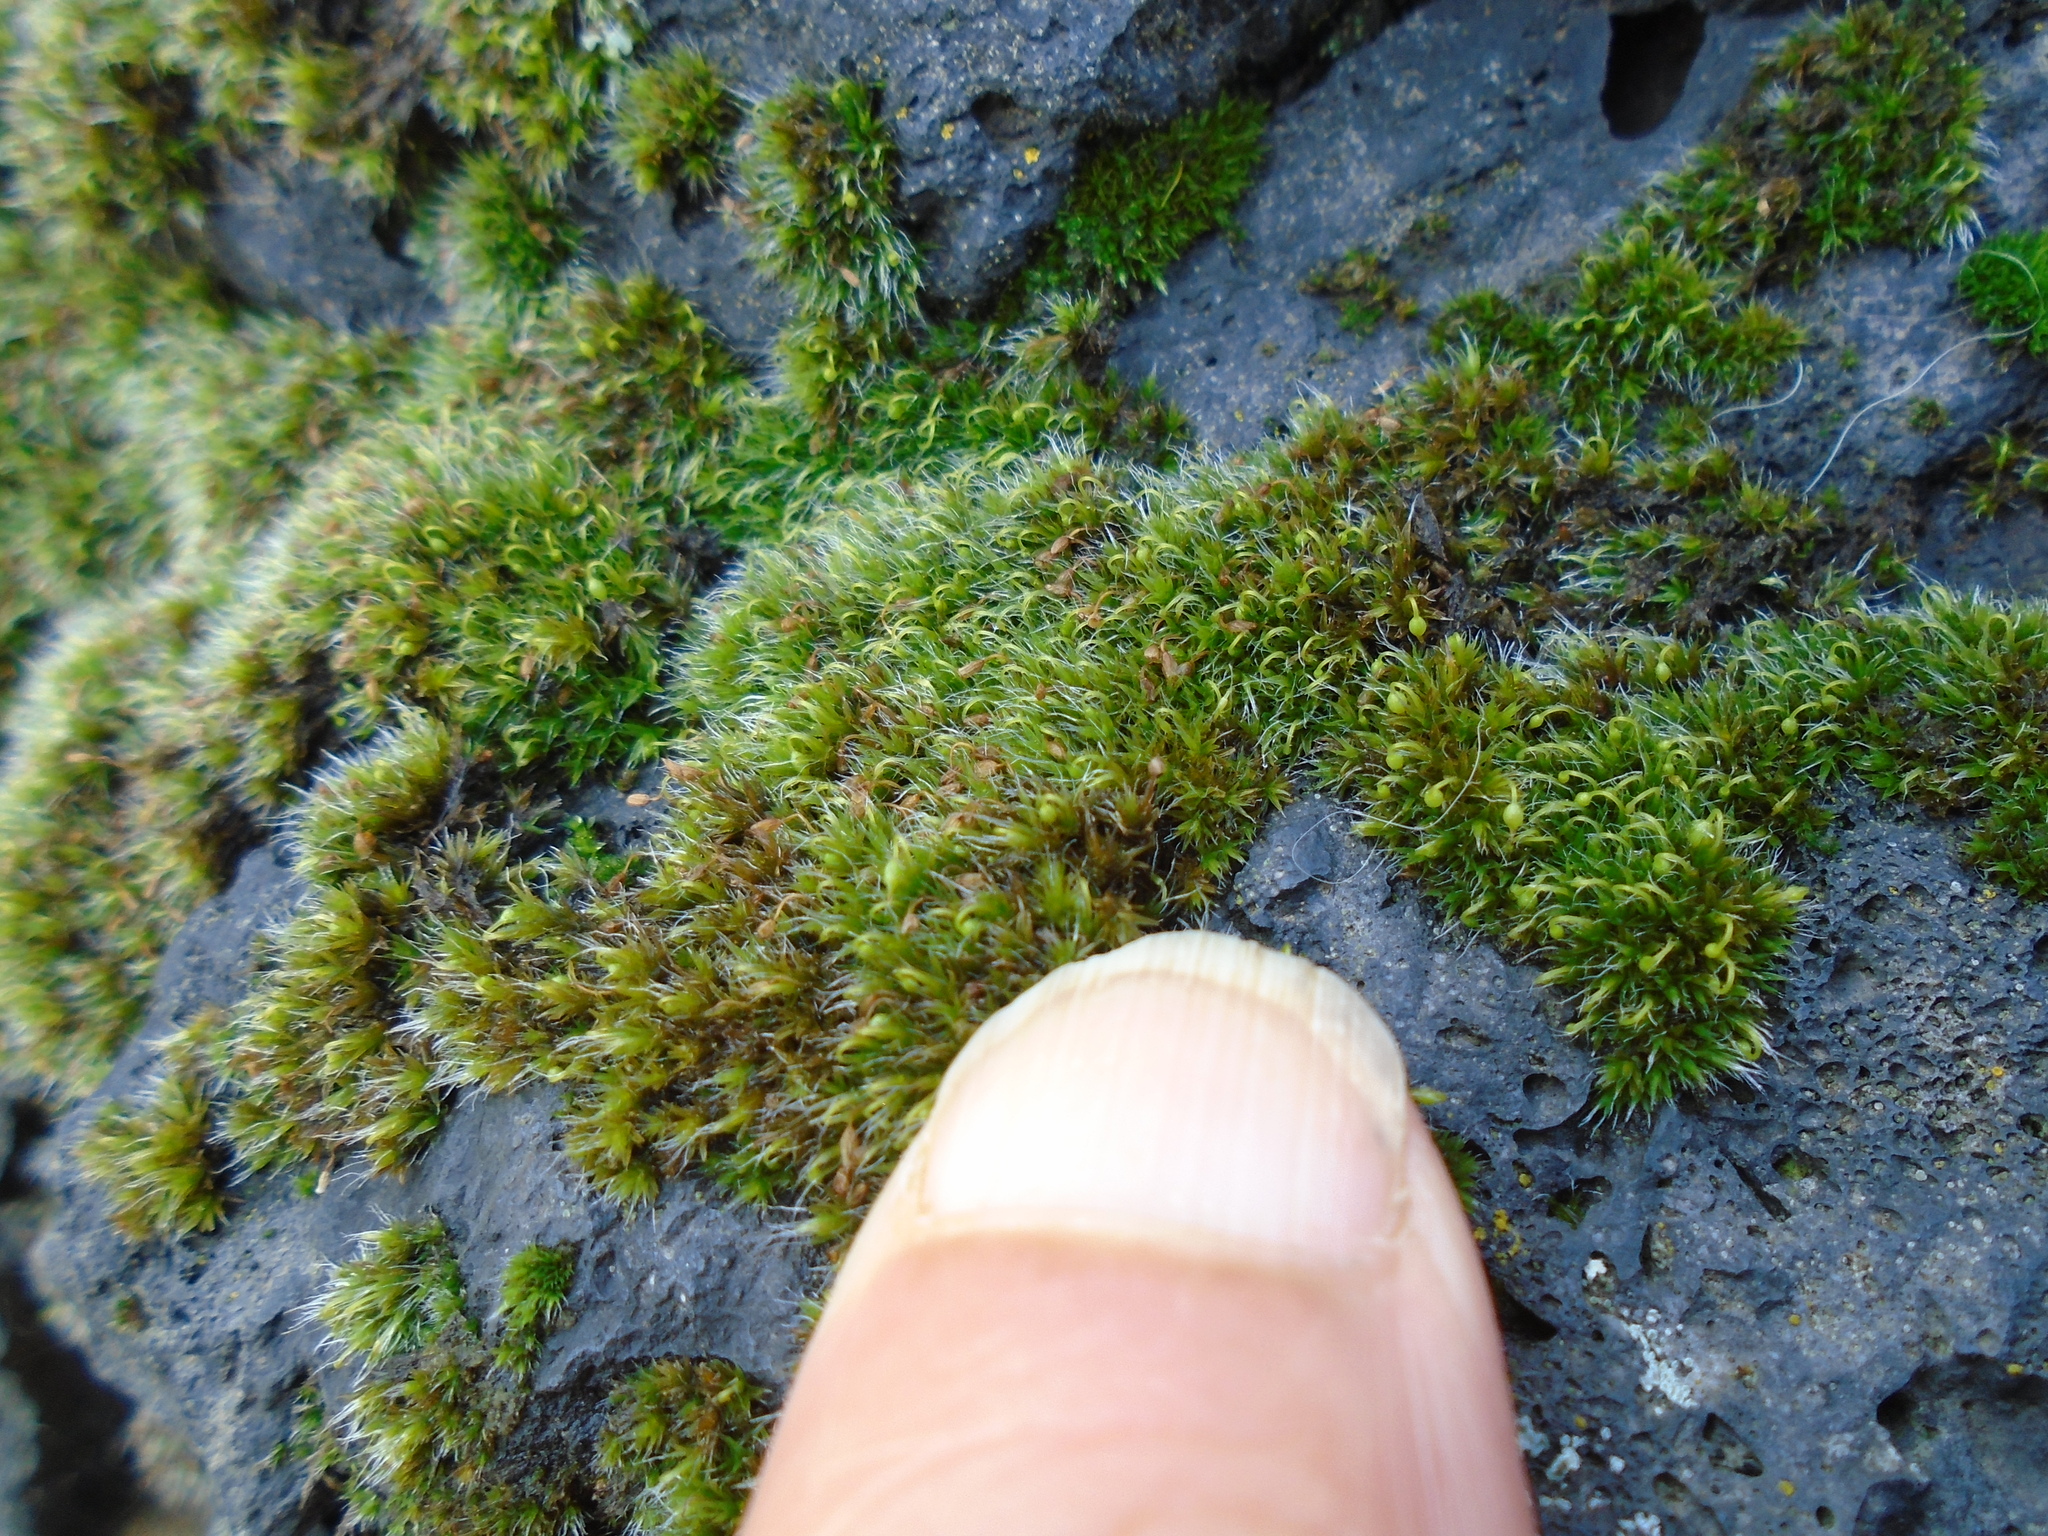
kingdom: Plantae
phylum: Bryophyta
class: Bryopsida
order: Grimmiales
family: Grimmiaceae
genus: Grimmia
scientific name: Grimmia pulvinata
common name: Grey-cushioned grimmia
